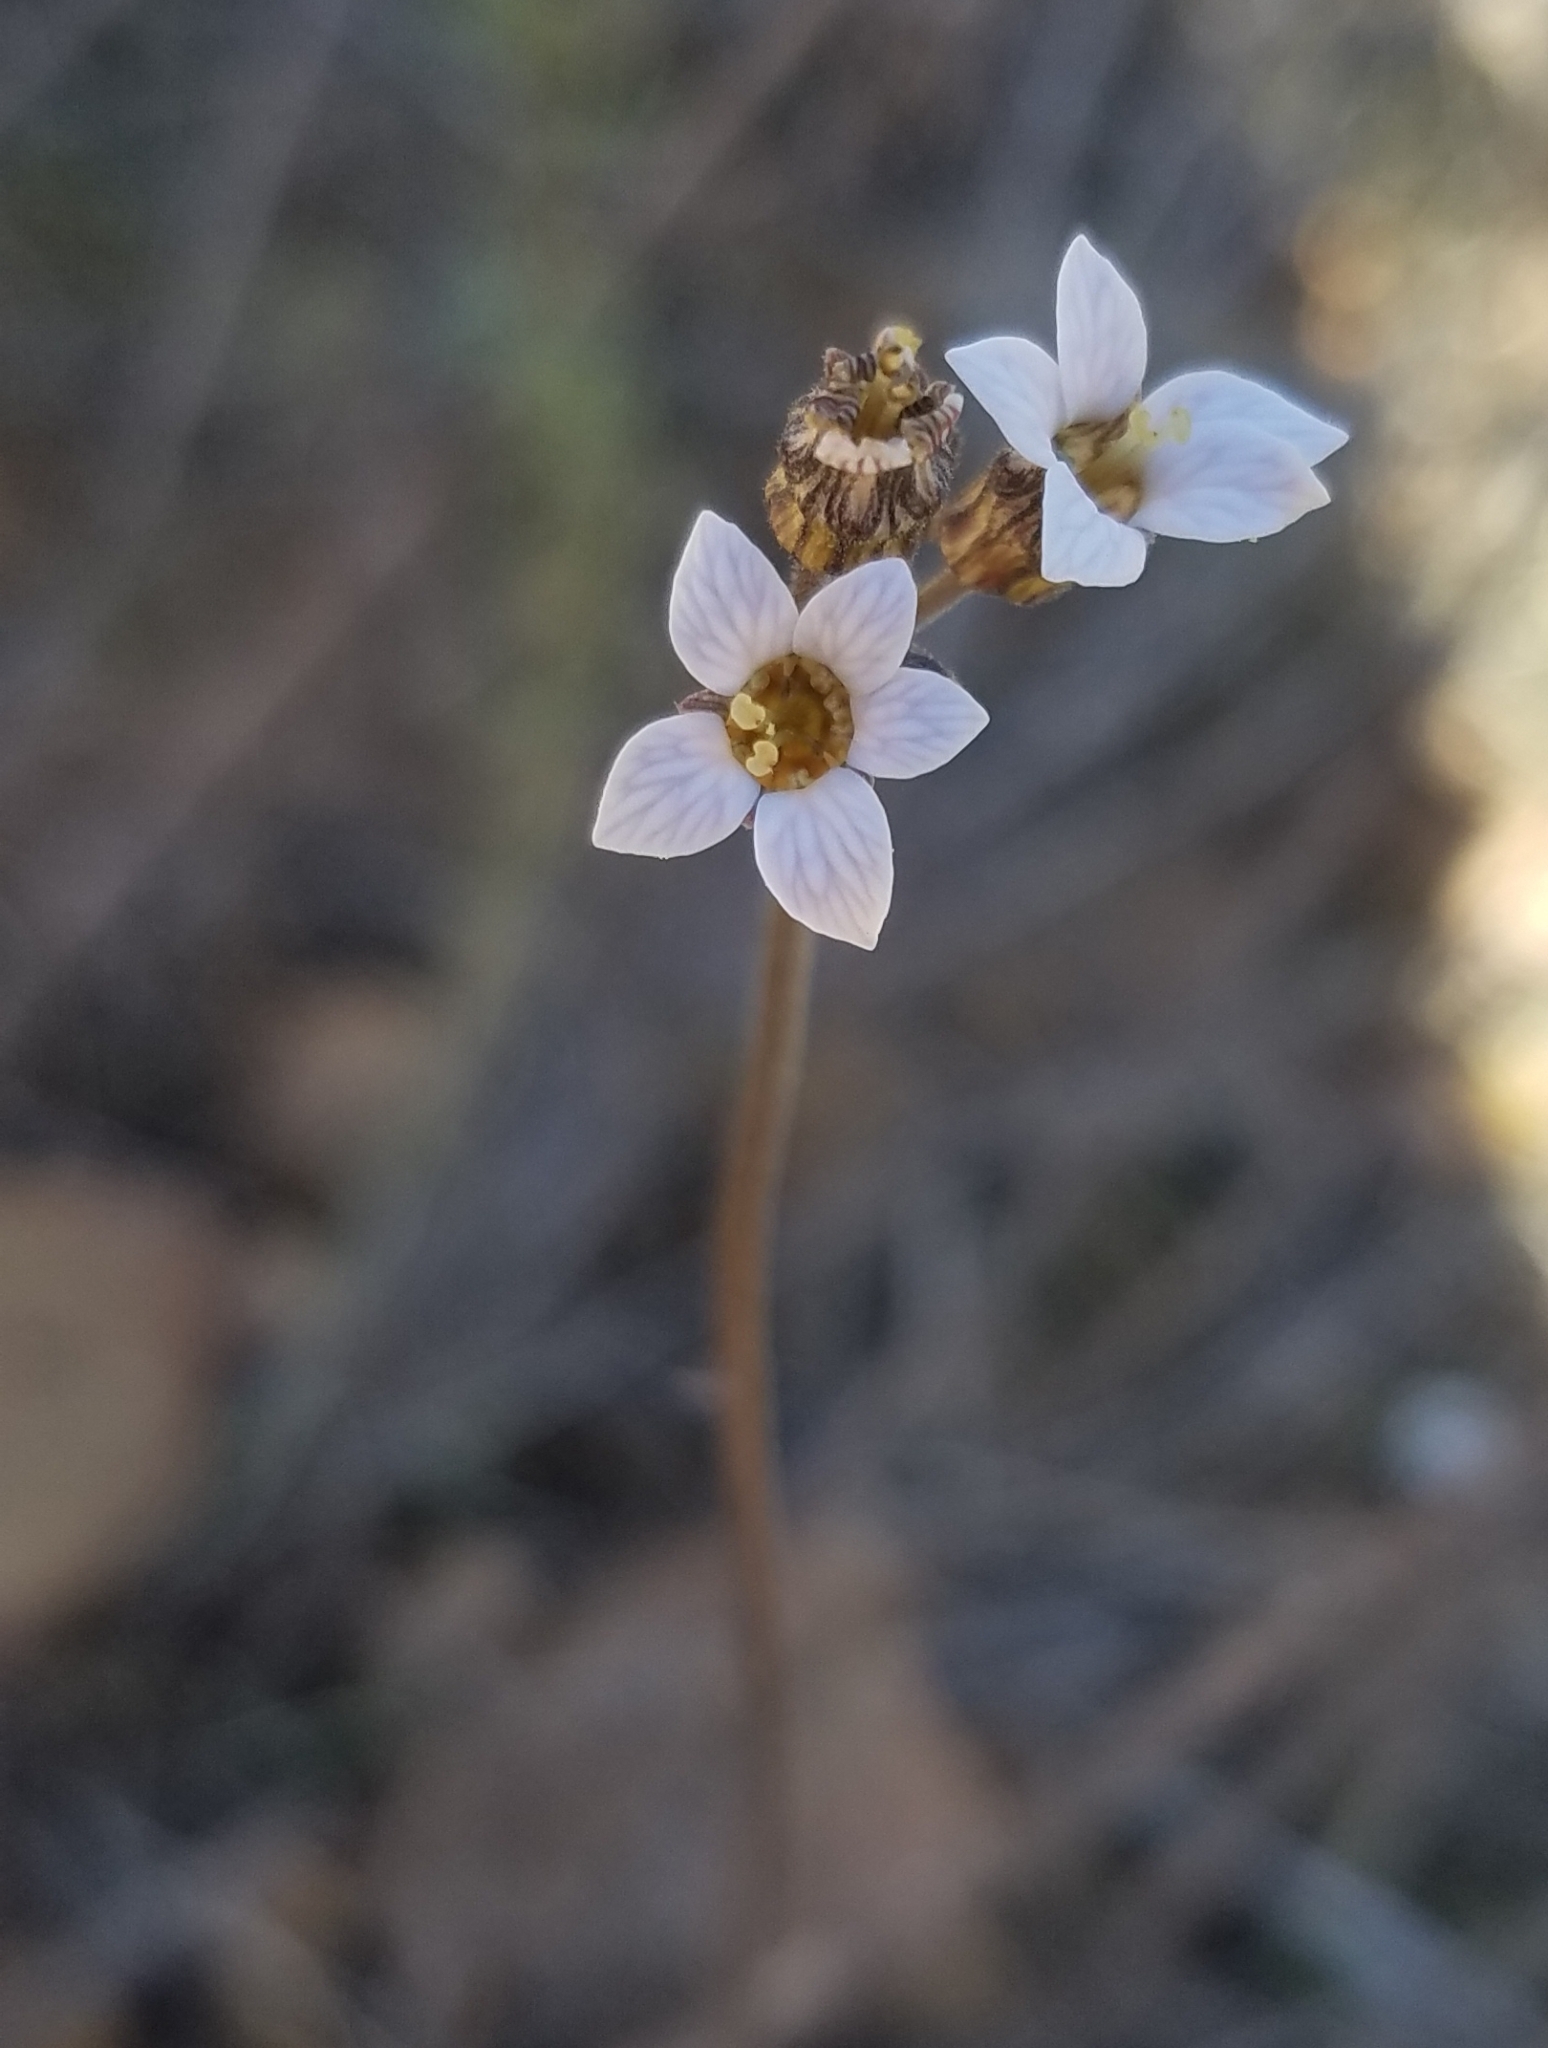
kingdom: Plantae
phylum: Tracheophyta
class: Magnoliopsida
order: Saxifragales
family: Saxifragaceae
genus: Jepsonia
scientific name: Jepsonia parryi
